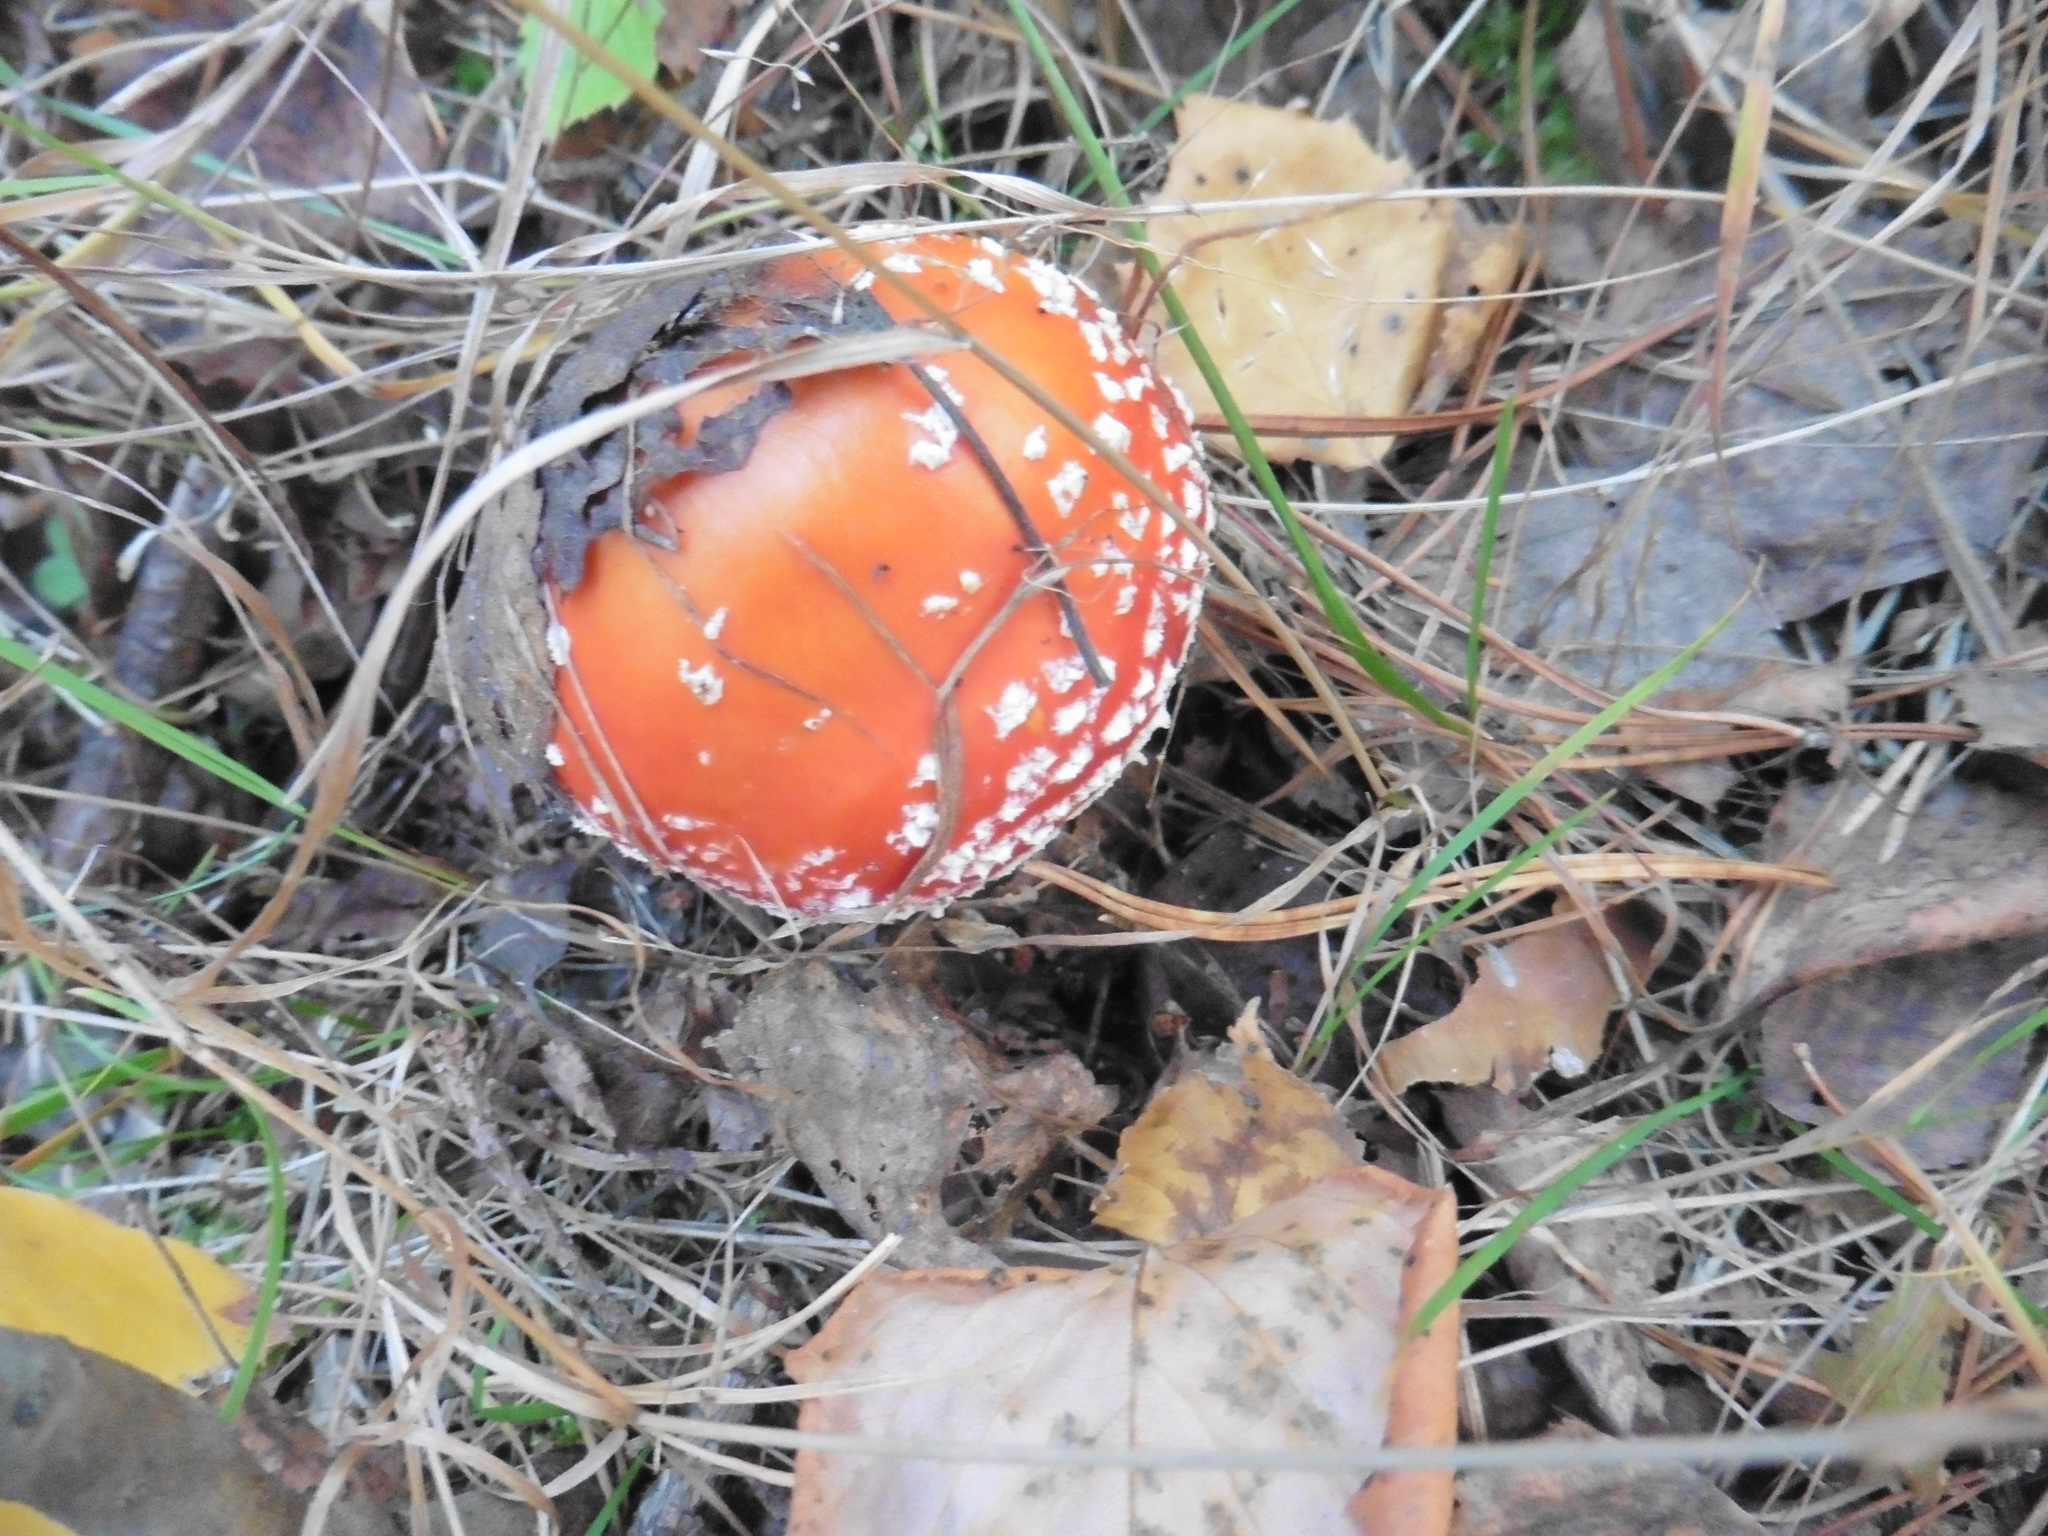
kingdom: Fungi
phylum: Basidiomycota
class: Agaricomycetes
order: Agaricales
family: Amanitaceae
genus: Amanita
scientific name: Amanita muscaria
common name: Fly agaric
